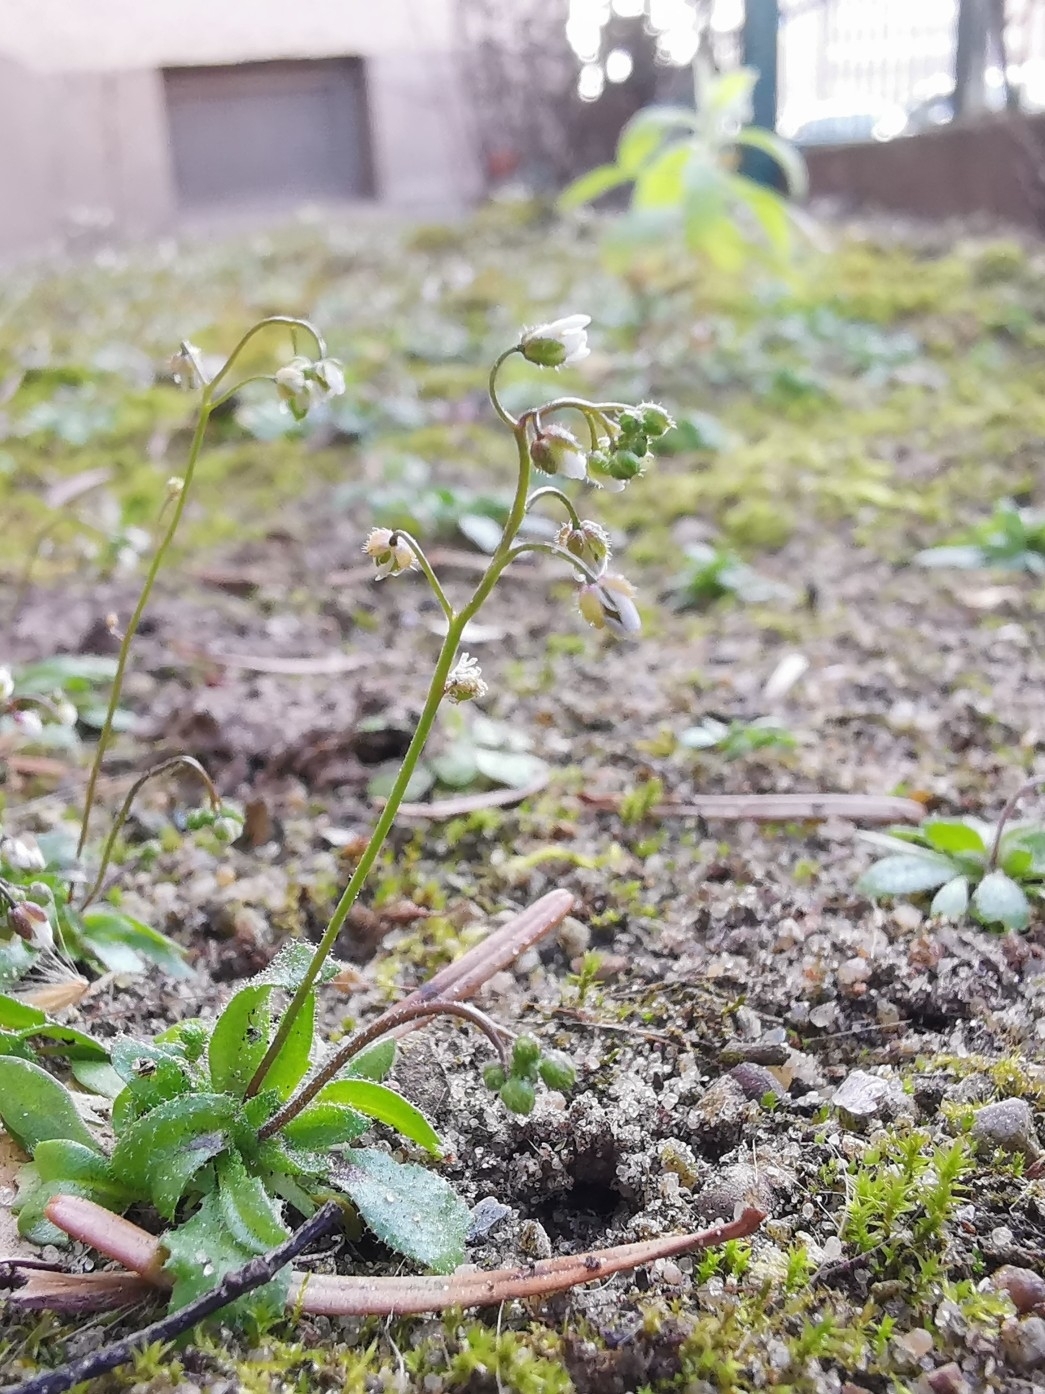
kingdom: Plantae
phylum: Tracheophyta
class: Magnoliopsida
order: Brassicales
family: Brassicaceae
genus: Draba
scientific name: Draba verna
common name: Spring draba
